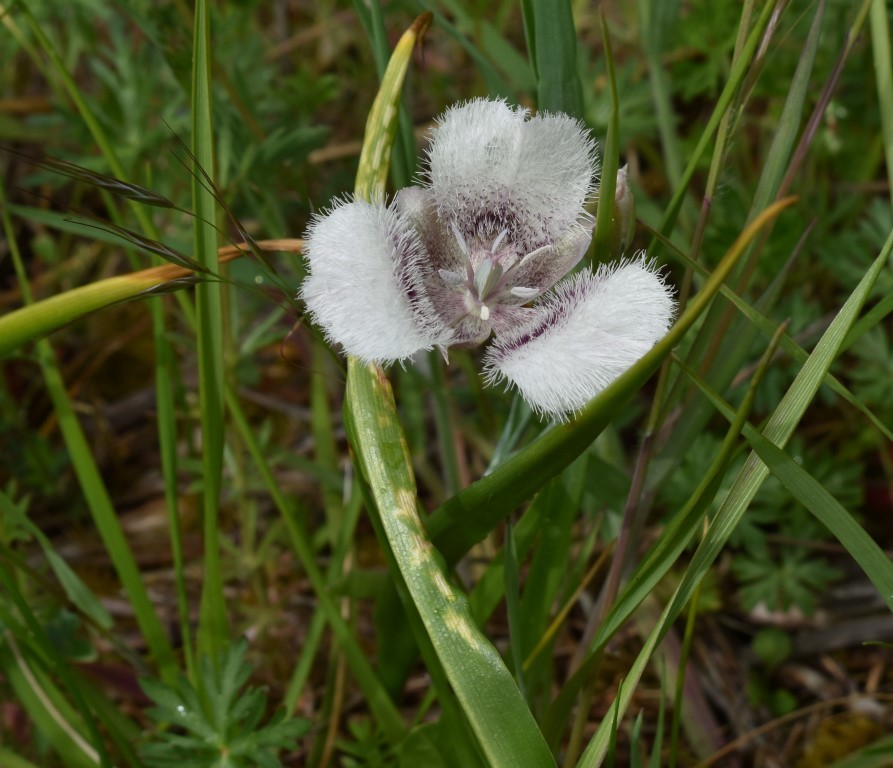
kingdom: Plantae
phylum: Tracheophyta
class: Liliopsida
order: Liliales
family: Liliaceae
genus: Calochortus
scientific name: Calochortus tolmiei
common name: Pussy-ears
